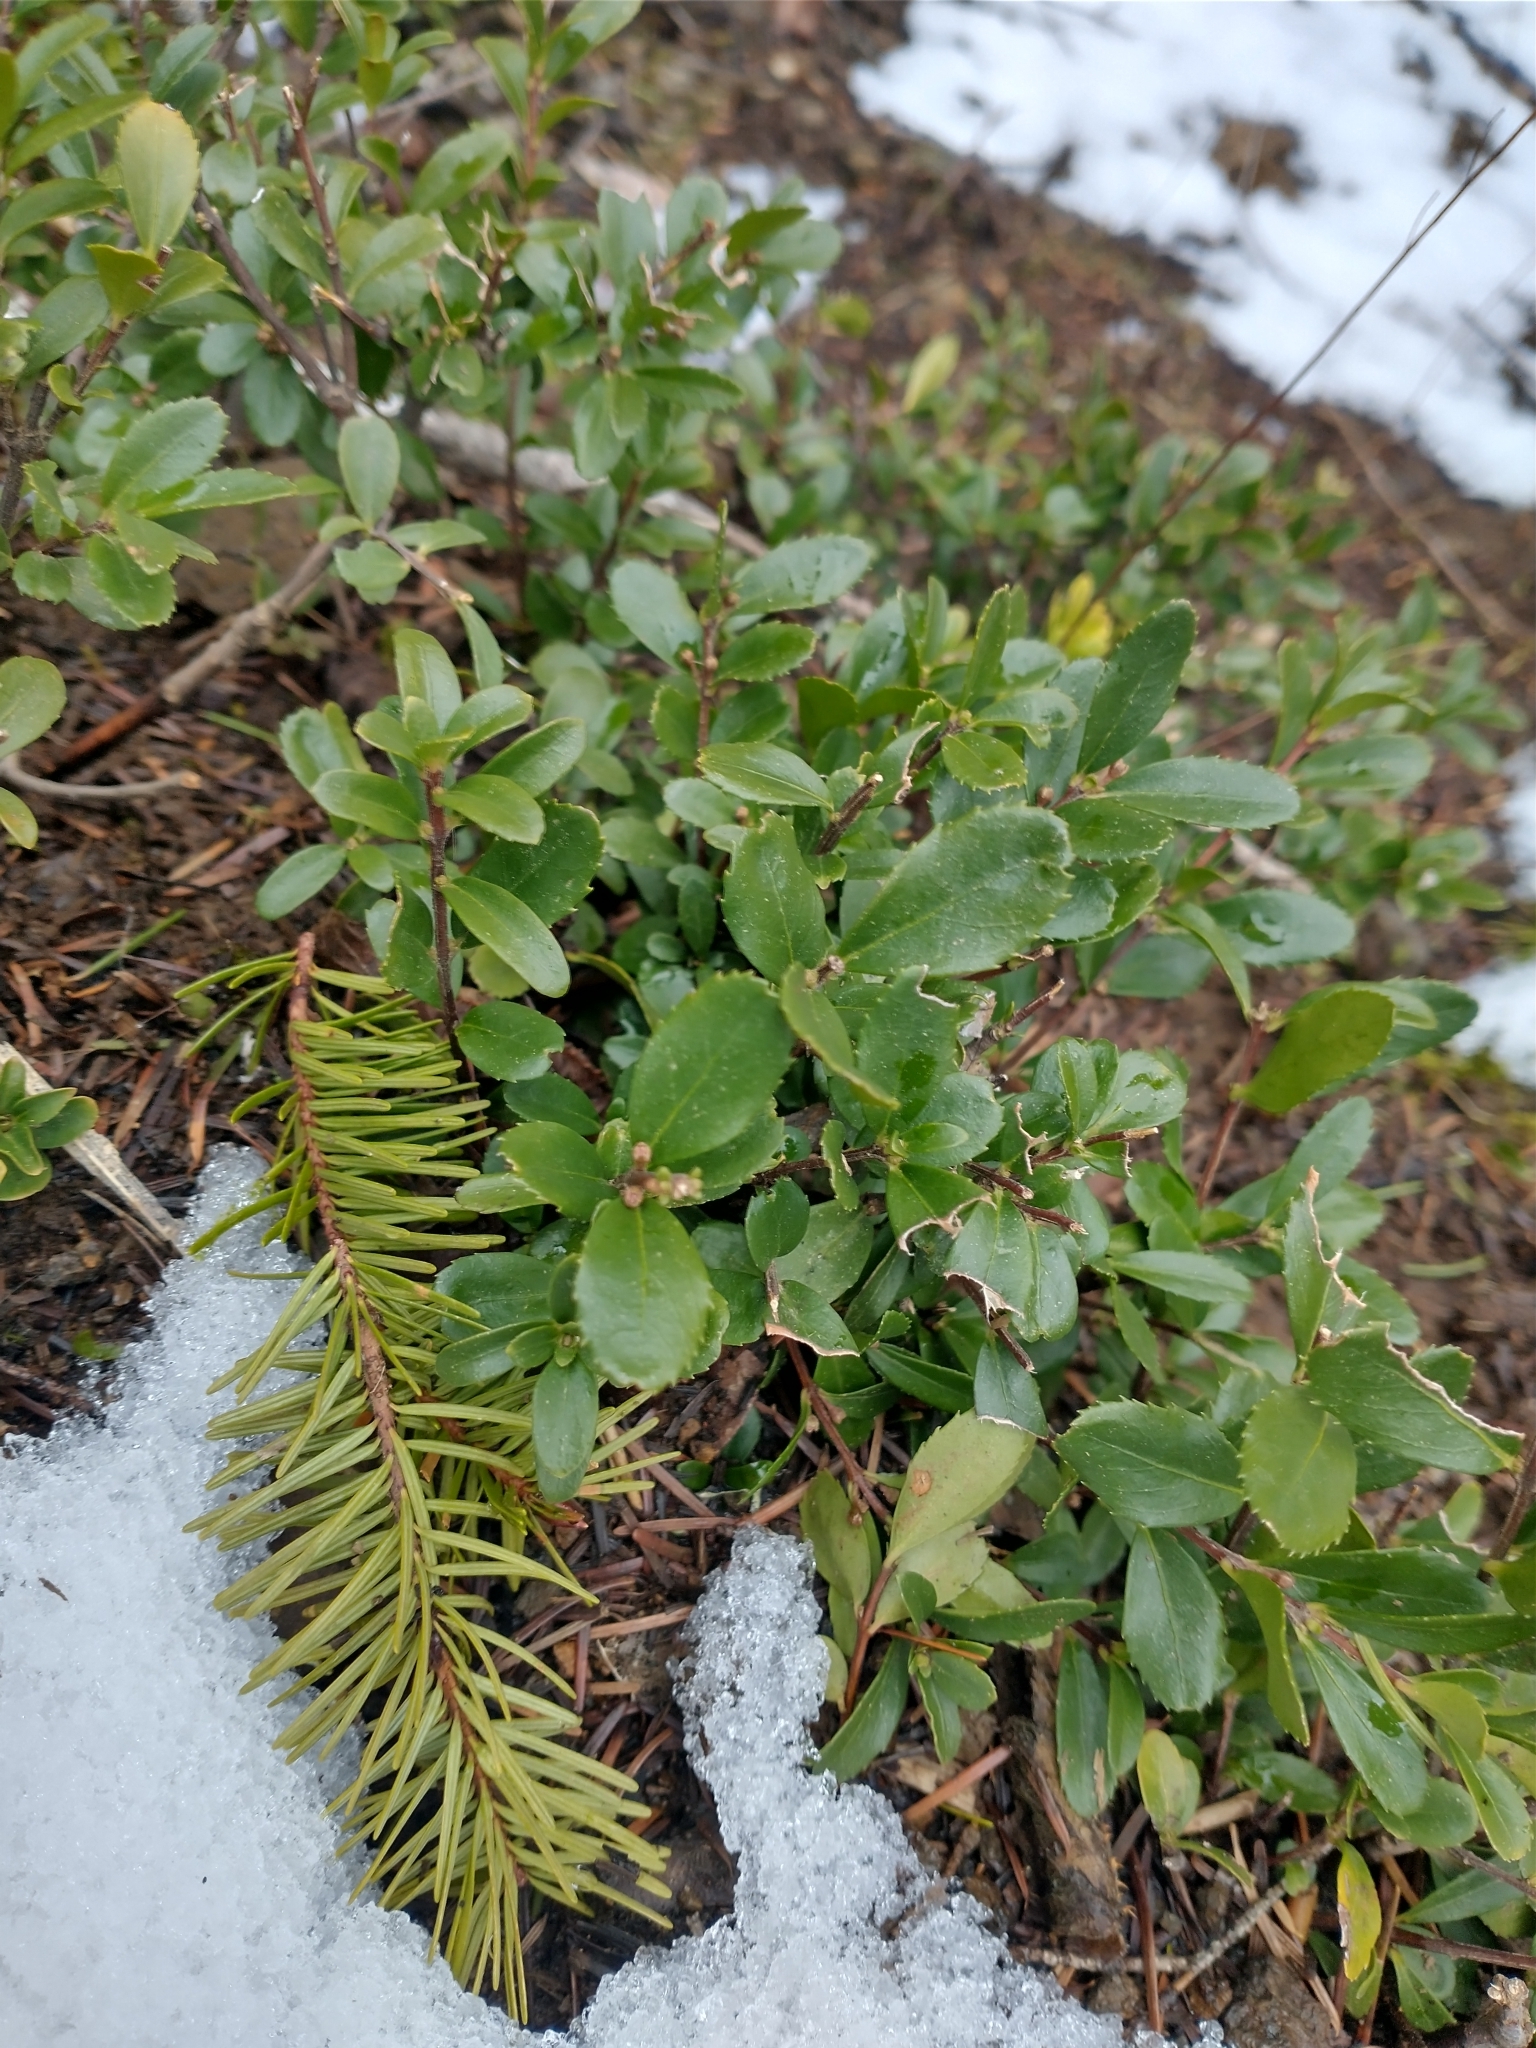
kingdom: Plantae
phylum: Tracheophyta
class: Magnoliopsida
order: Celastrales
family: Celastraceae
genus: Paxistima
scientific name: Paxistima myrsinites
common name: Mountain-lover
